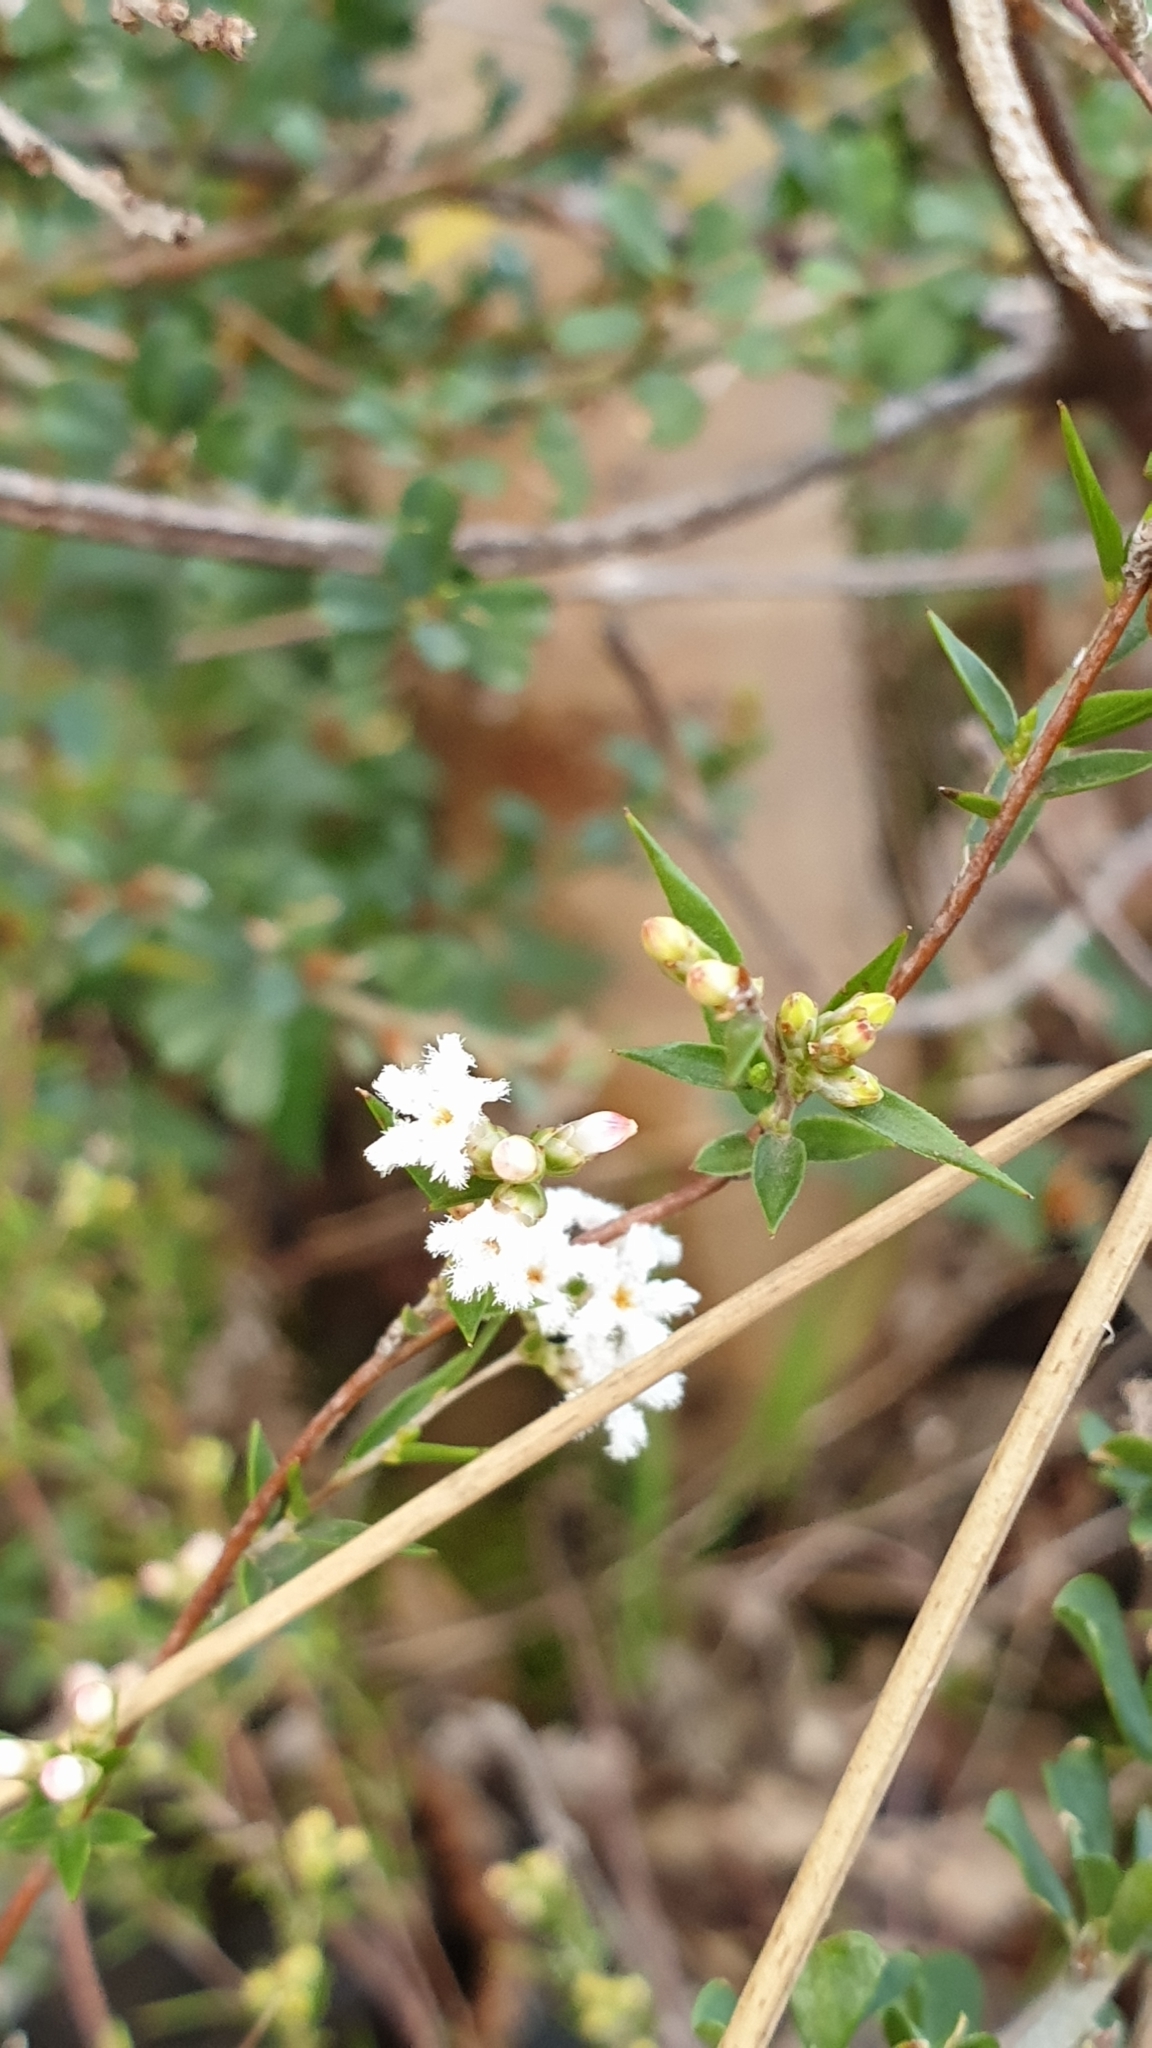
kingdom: Plantae
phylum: Tracheophyta
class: Magnoliopsida
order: Ericales
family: Ericaceae
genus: Leucopogon
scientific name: Leucopogon virgatus
